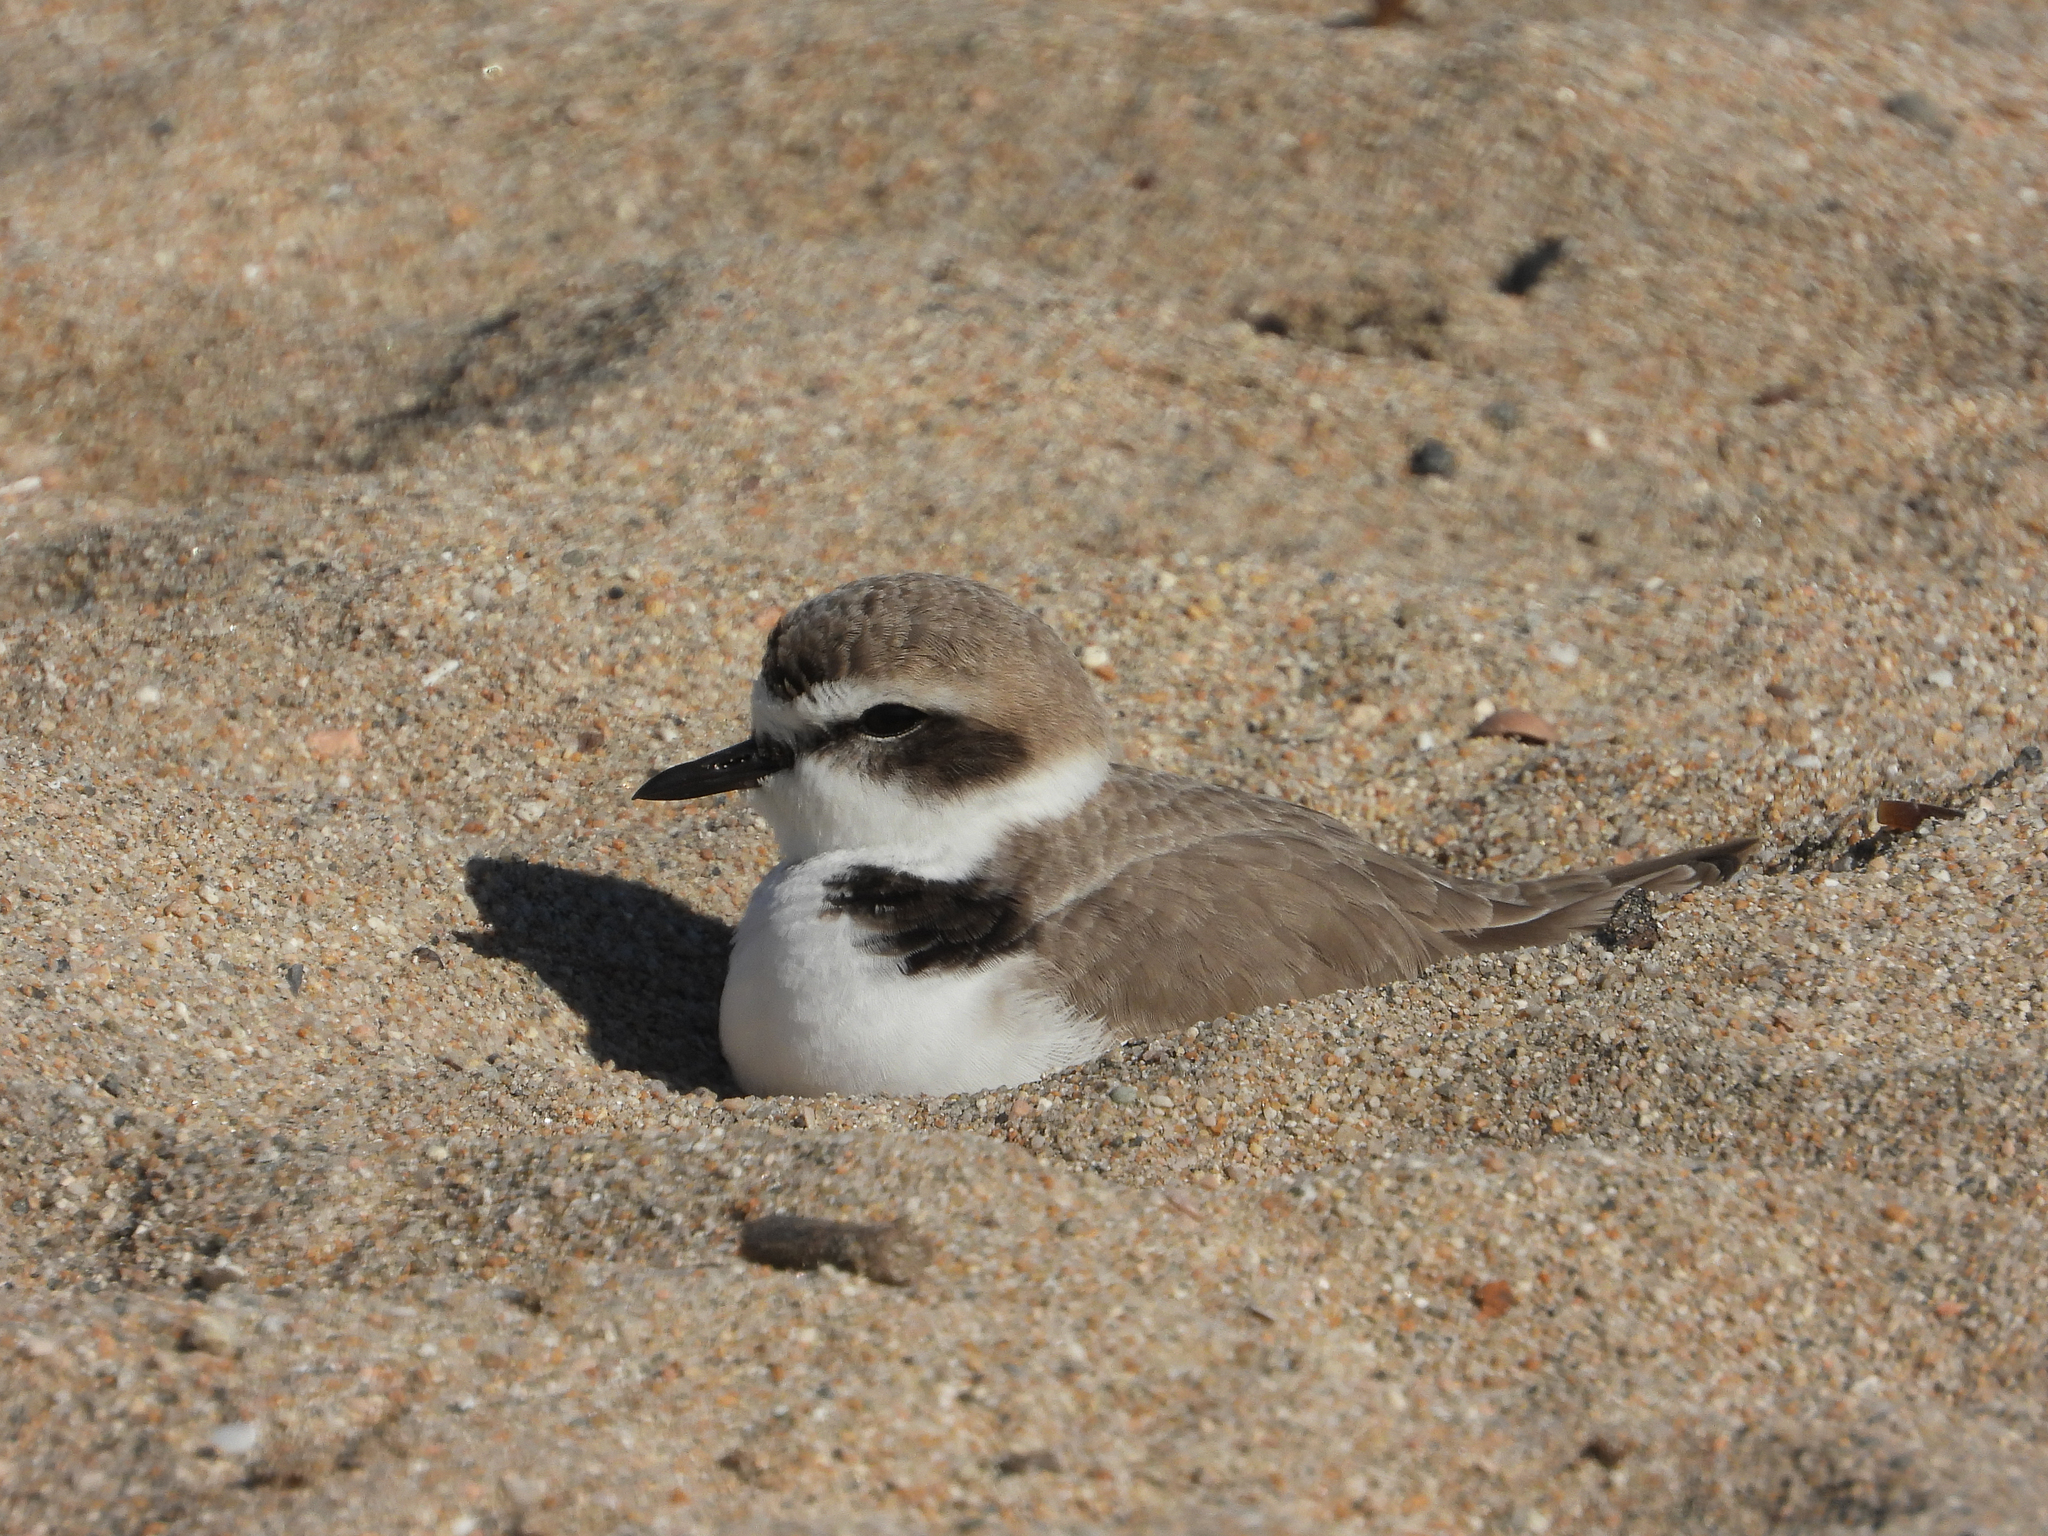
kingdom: Animalia
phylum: Chordata
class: Aves
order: Charadriiformes
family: Charadriidae
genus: Anarhynchus
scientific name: Anarhynchus
